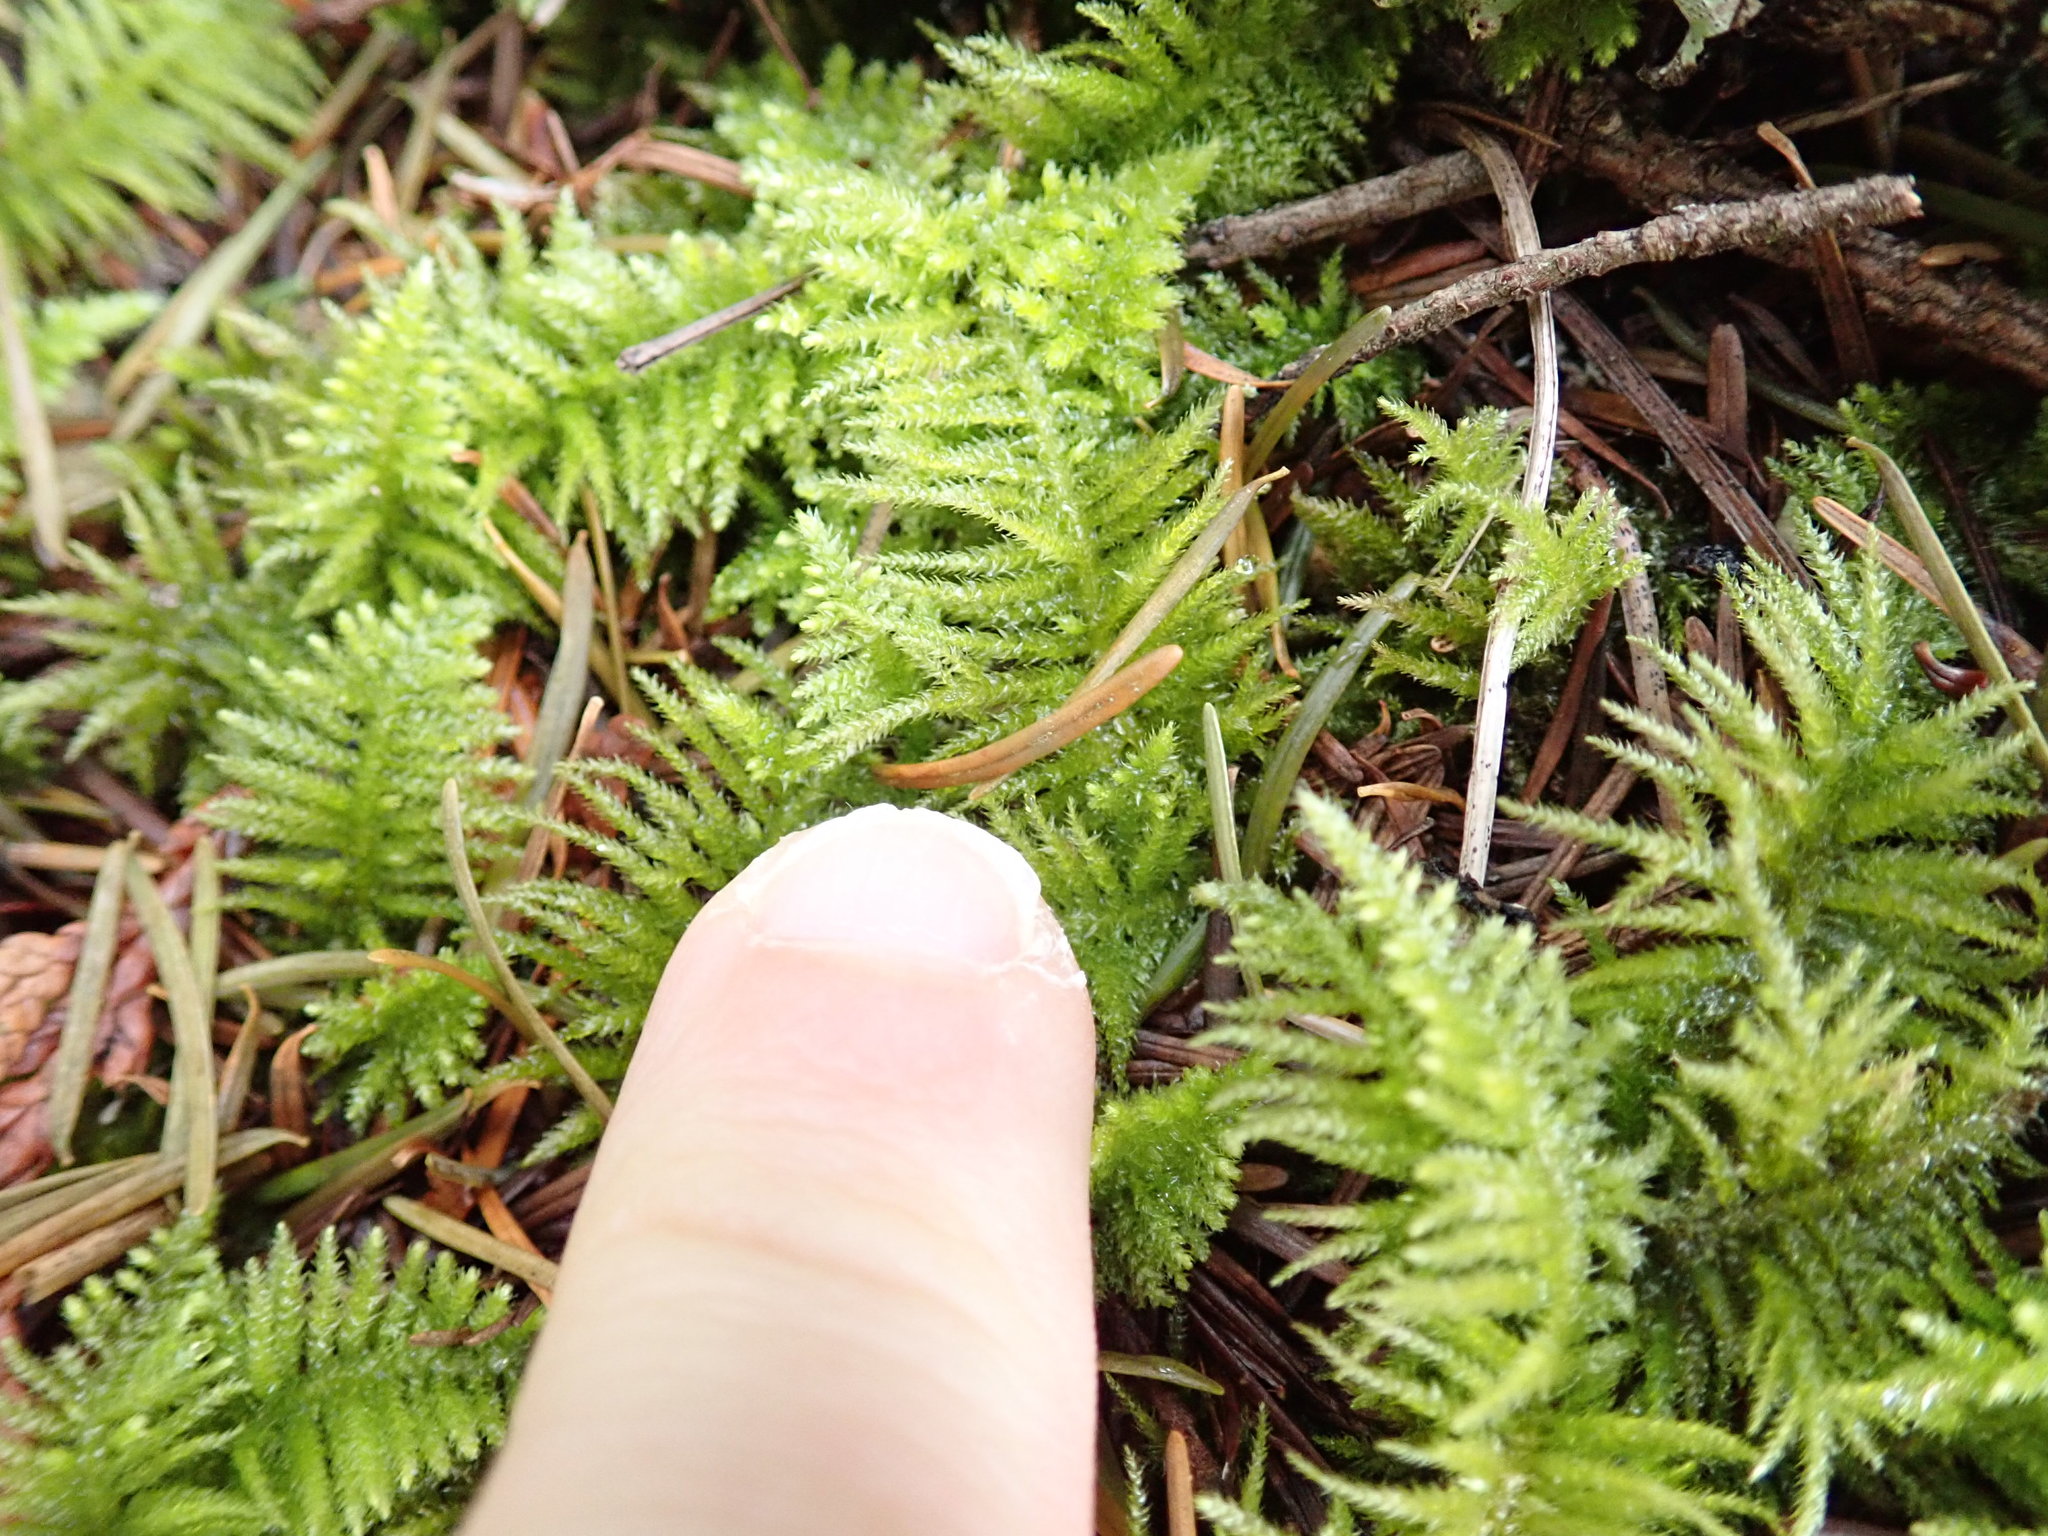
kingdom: Plantae
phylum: Bryophyta
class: Bryopsida
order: Hypnales
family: Brachytheciaceae
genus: Kindbergia
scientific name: Kindbergia oregana
